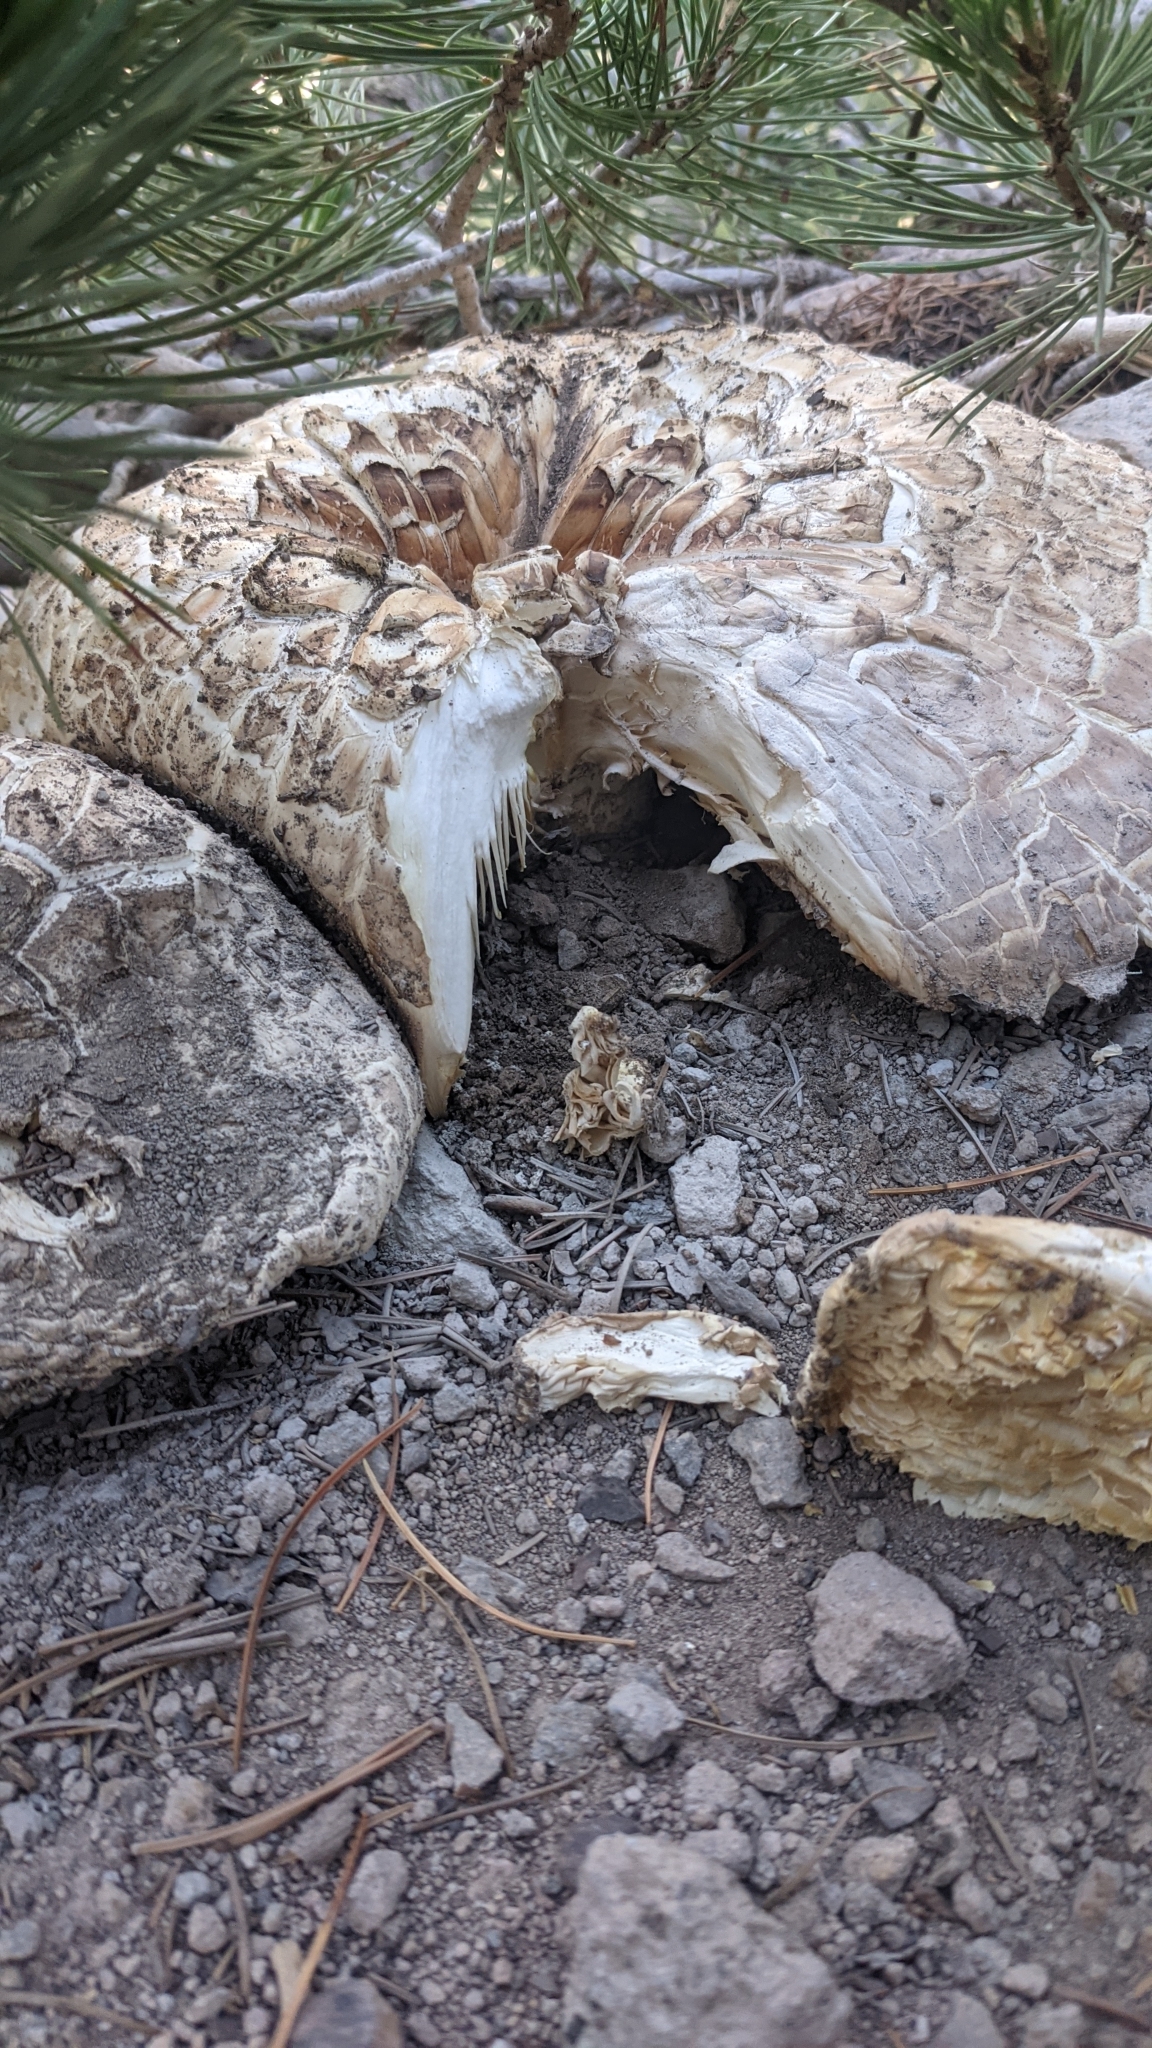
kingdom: Fungi
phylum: Basidiomycota
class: Agaricomycetes
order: Gloeophyllales
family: Gloeophyllaceae
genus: Neolentinus
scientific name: Neolentinus ponderosus
